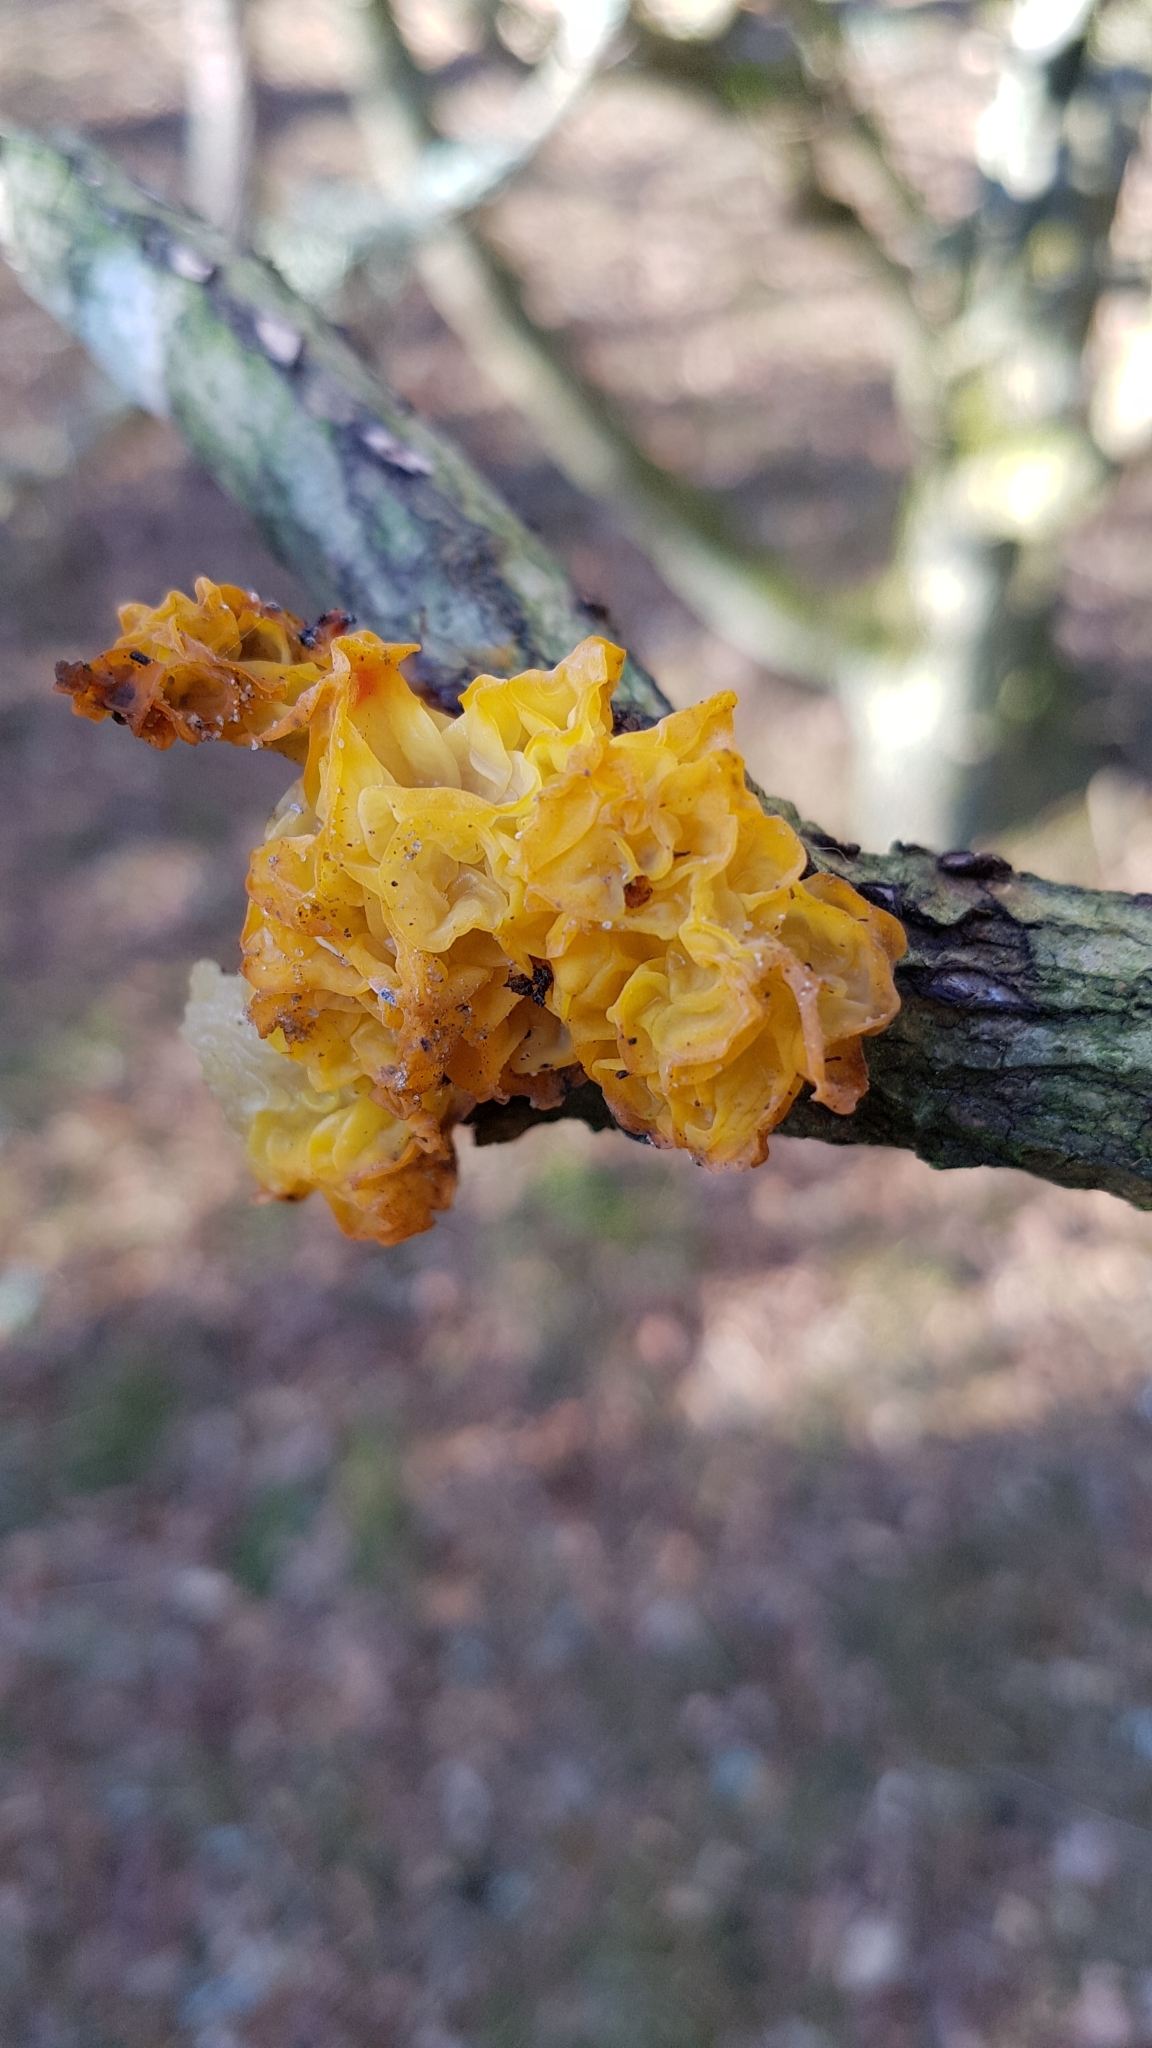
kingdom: Fungi
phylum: Basidiomycota
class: Tremellomycetes
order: Tremellales
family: Tremellaceae
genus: Tremella
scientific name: Tremella mesenterica
